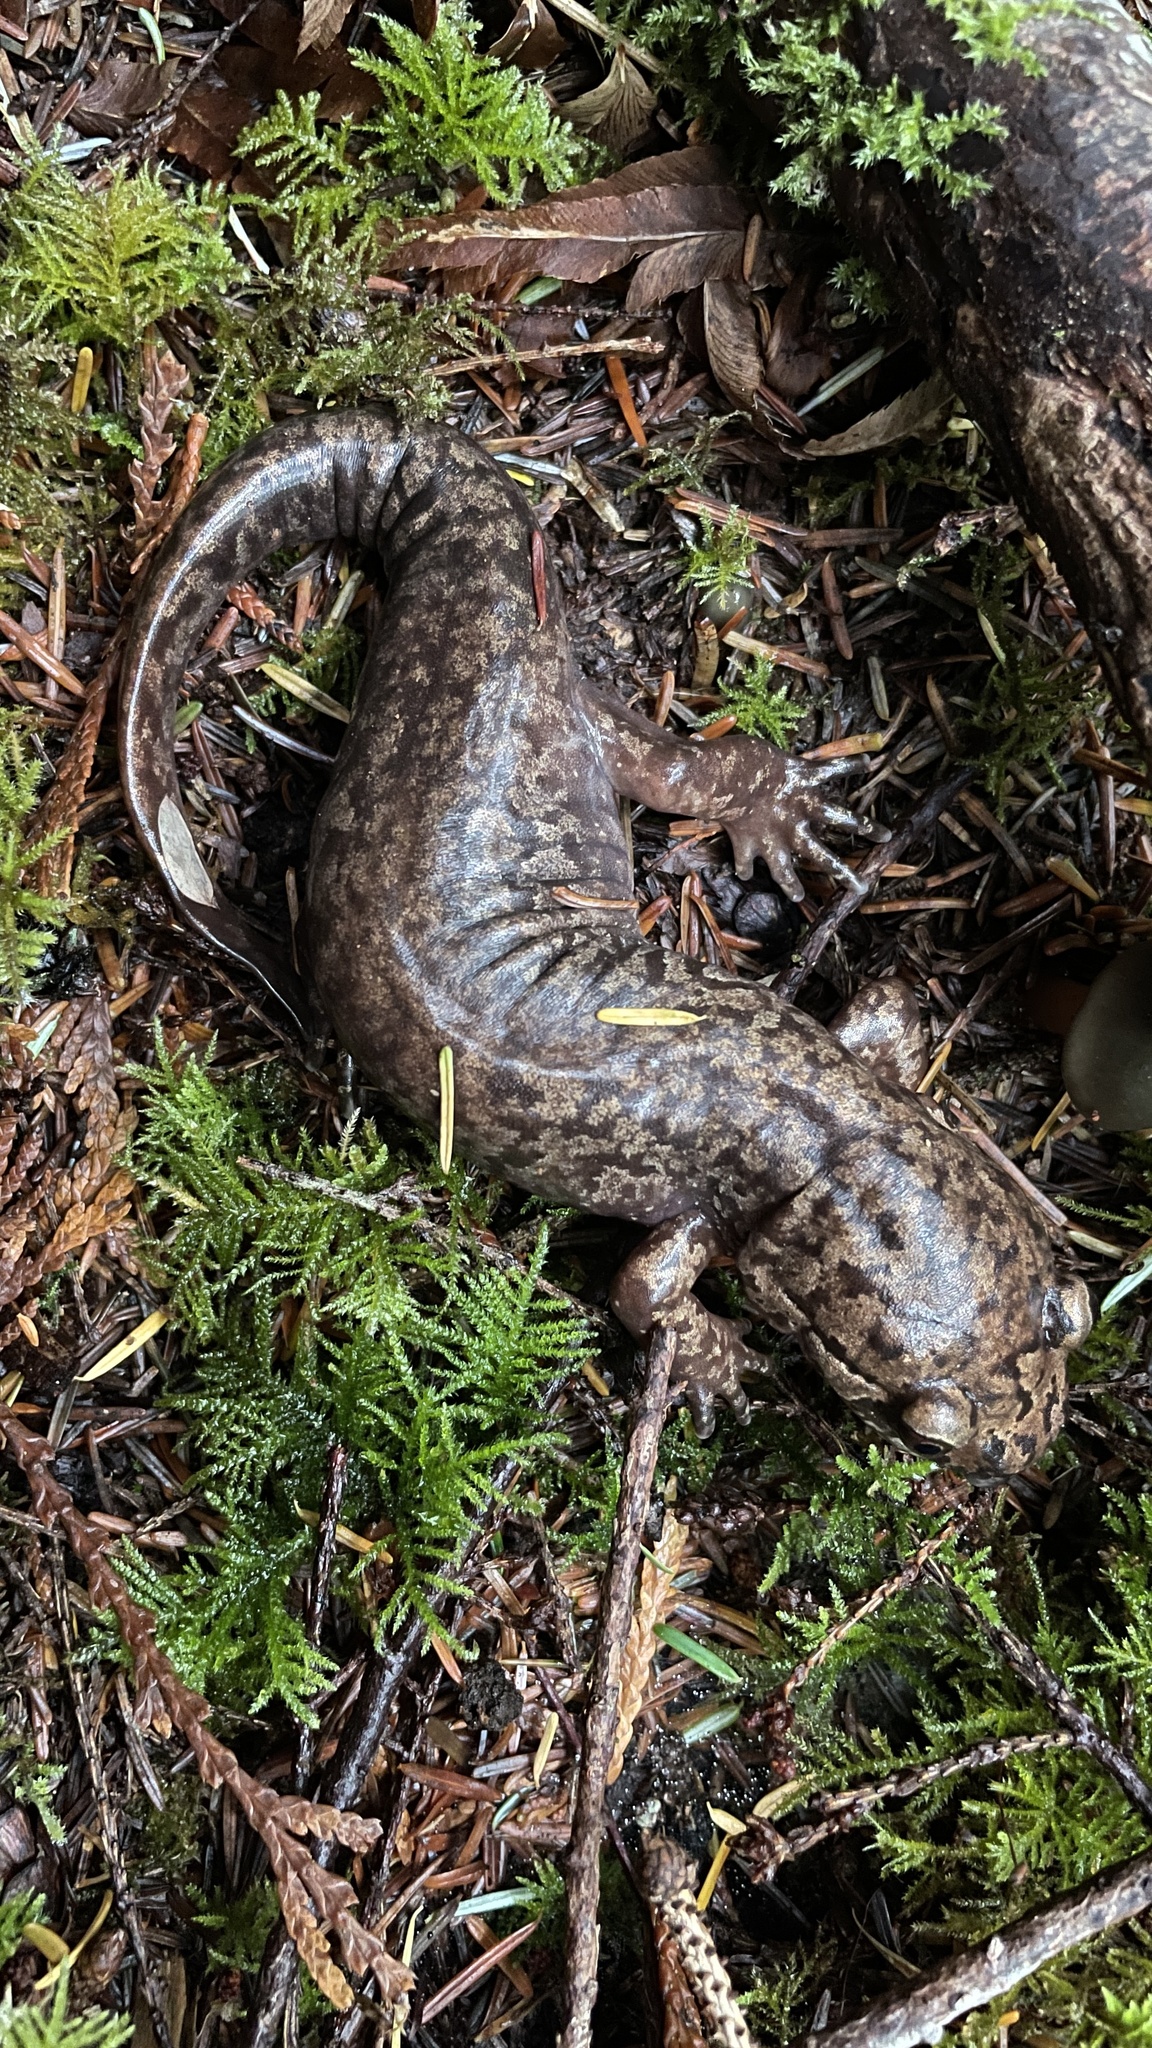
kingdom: Animalia
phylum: Chordata
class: Amphibia
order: Caudata
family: Ambystomatidae
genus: Dicamptodon
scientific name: Dicamptodon tenebrosus
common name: Coastal giant salamander
